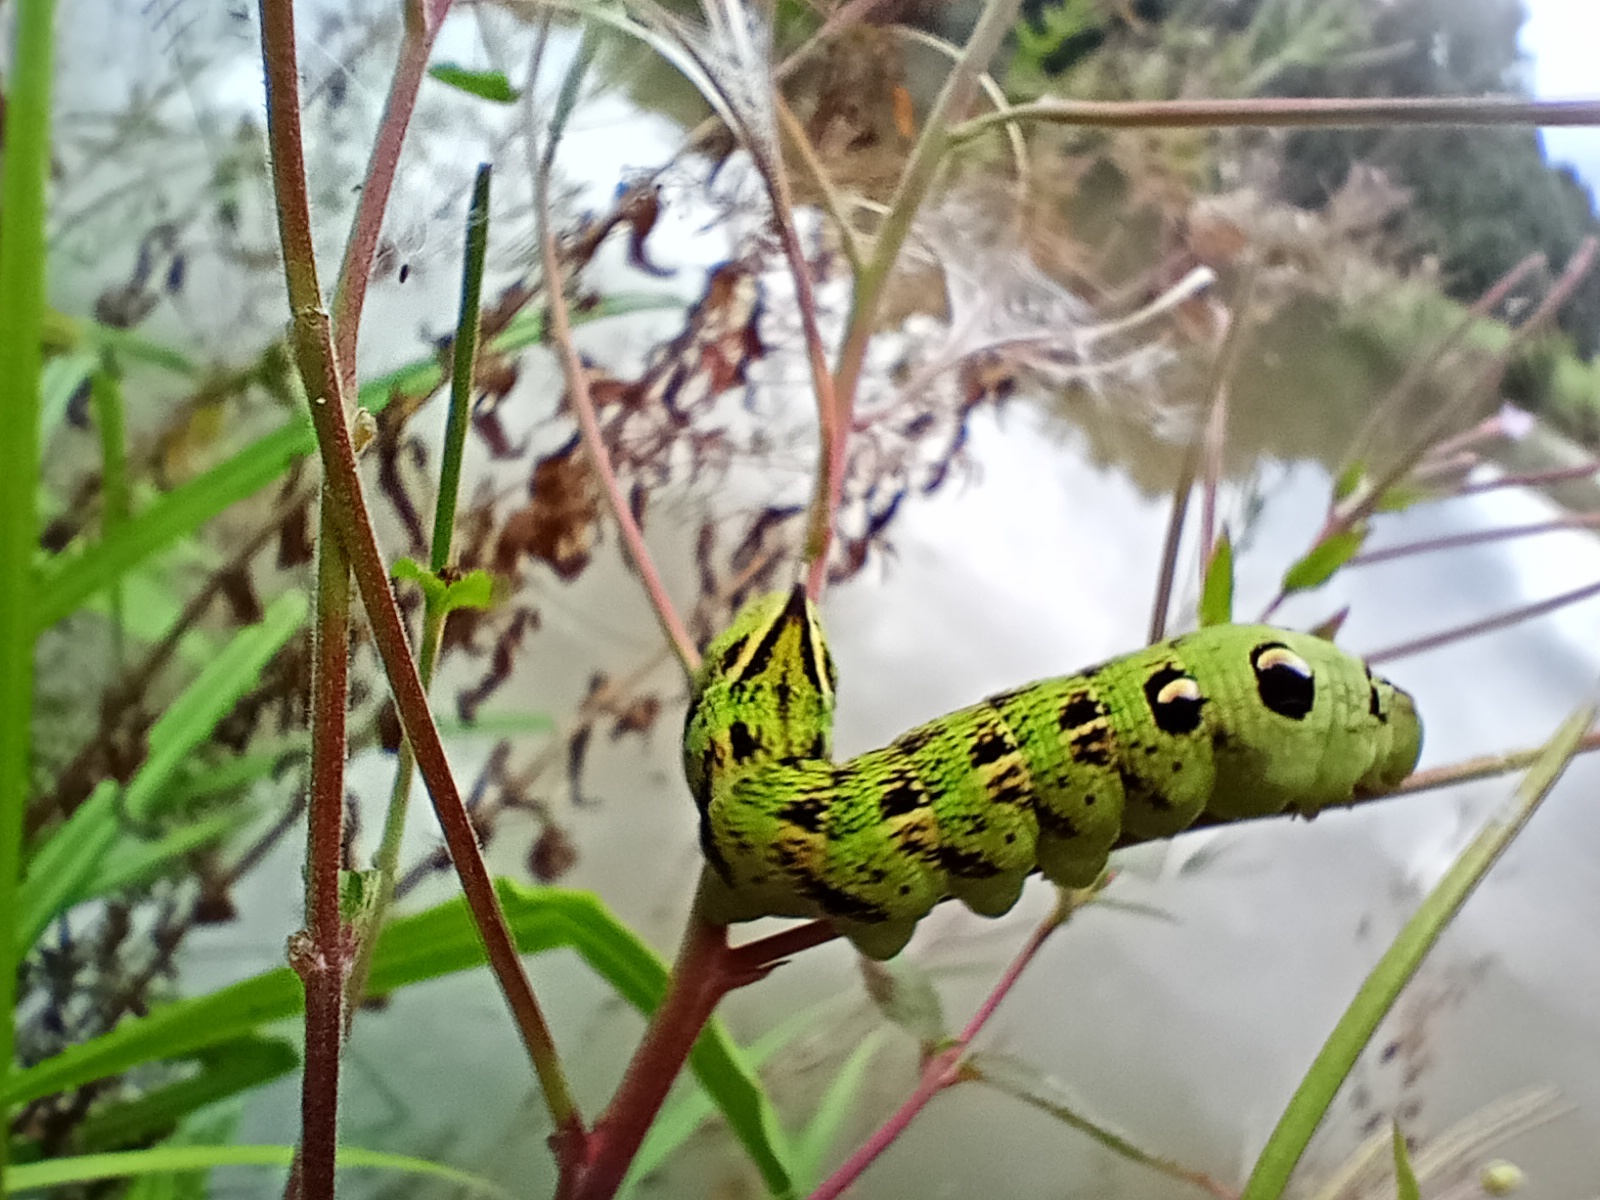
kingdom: Animalia
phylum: Arthropoda
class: Insecta
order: Lepidoptera
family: Sphingidae
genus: Deilephila
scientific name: Deilephila elpenor
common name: Elephant hawk-moth
